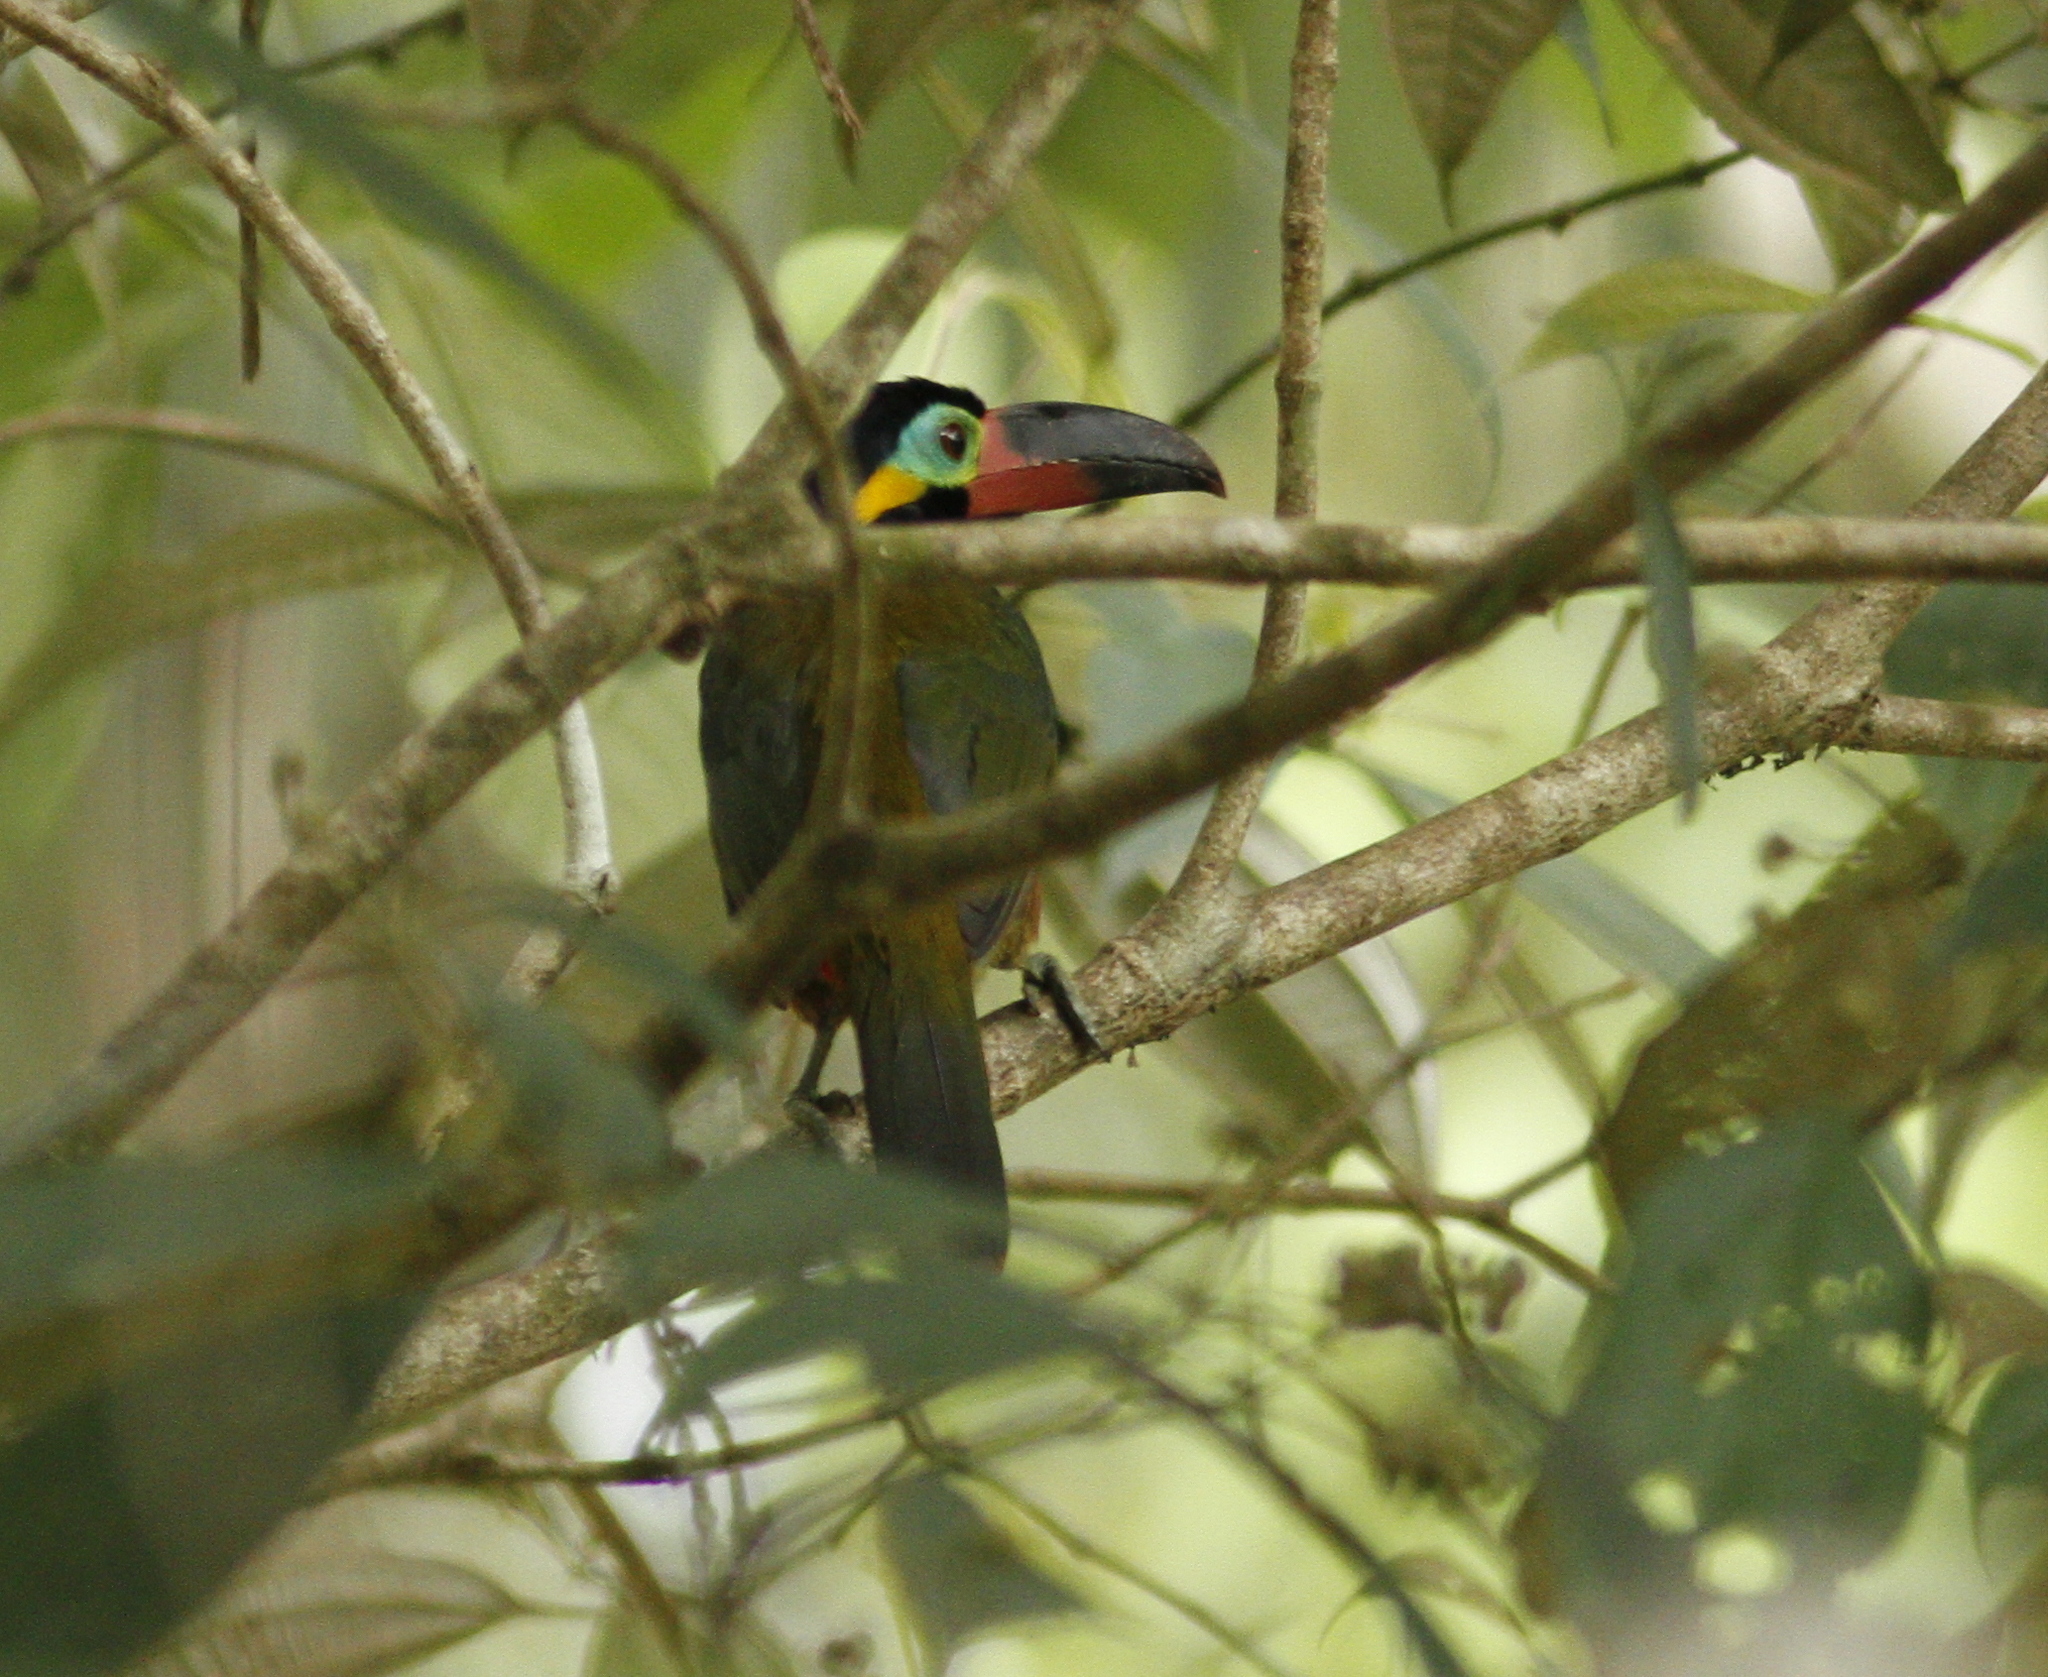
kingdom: Animalia
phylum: Chordata
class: Aves
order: Piciformes
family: Ramphastidae
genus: Selenidera
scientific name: Selenidera piperivora
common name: Guianan toucanet
